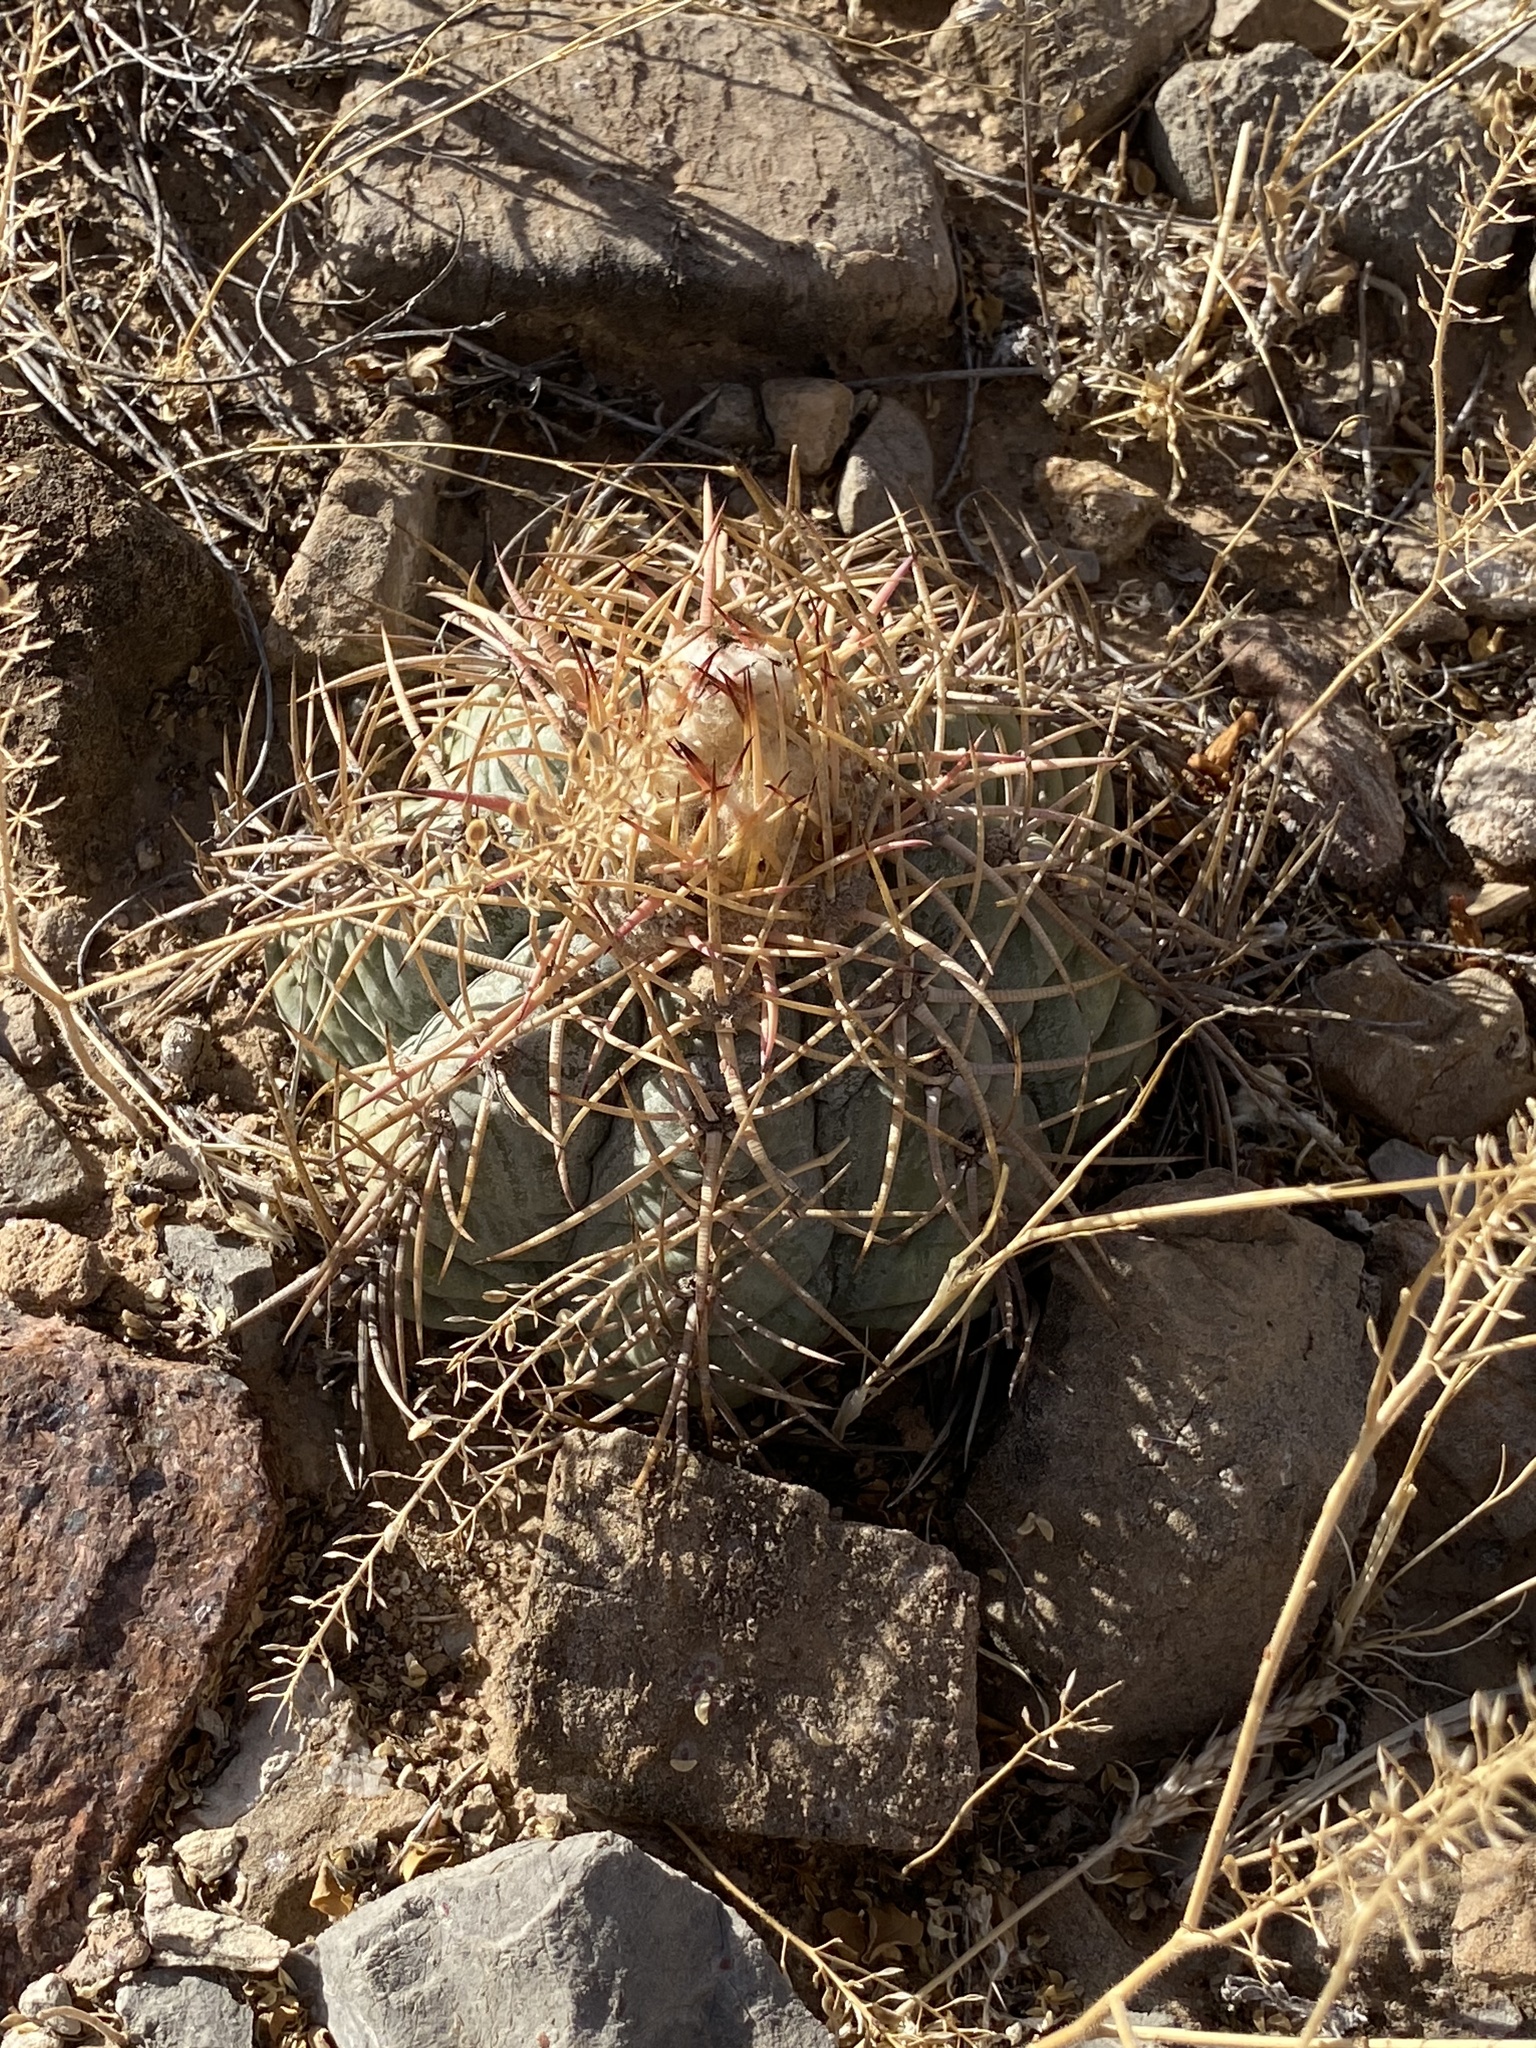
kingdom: Plantae
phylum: Tracheophyta
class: Magnoliopsida
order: Caryophyllales
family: Cactaceae
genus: Echinocactus
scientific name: Echinocactus horizonthalonius
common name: Devilshead
